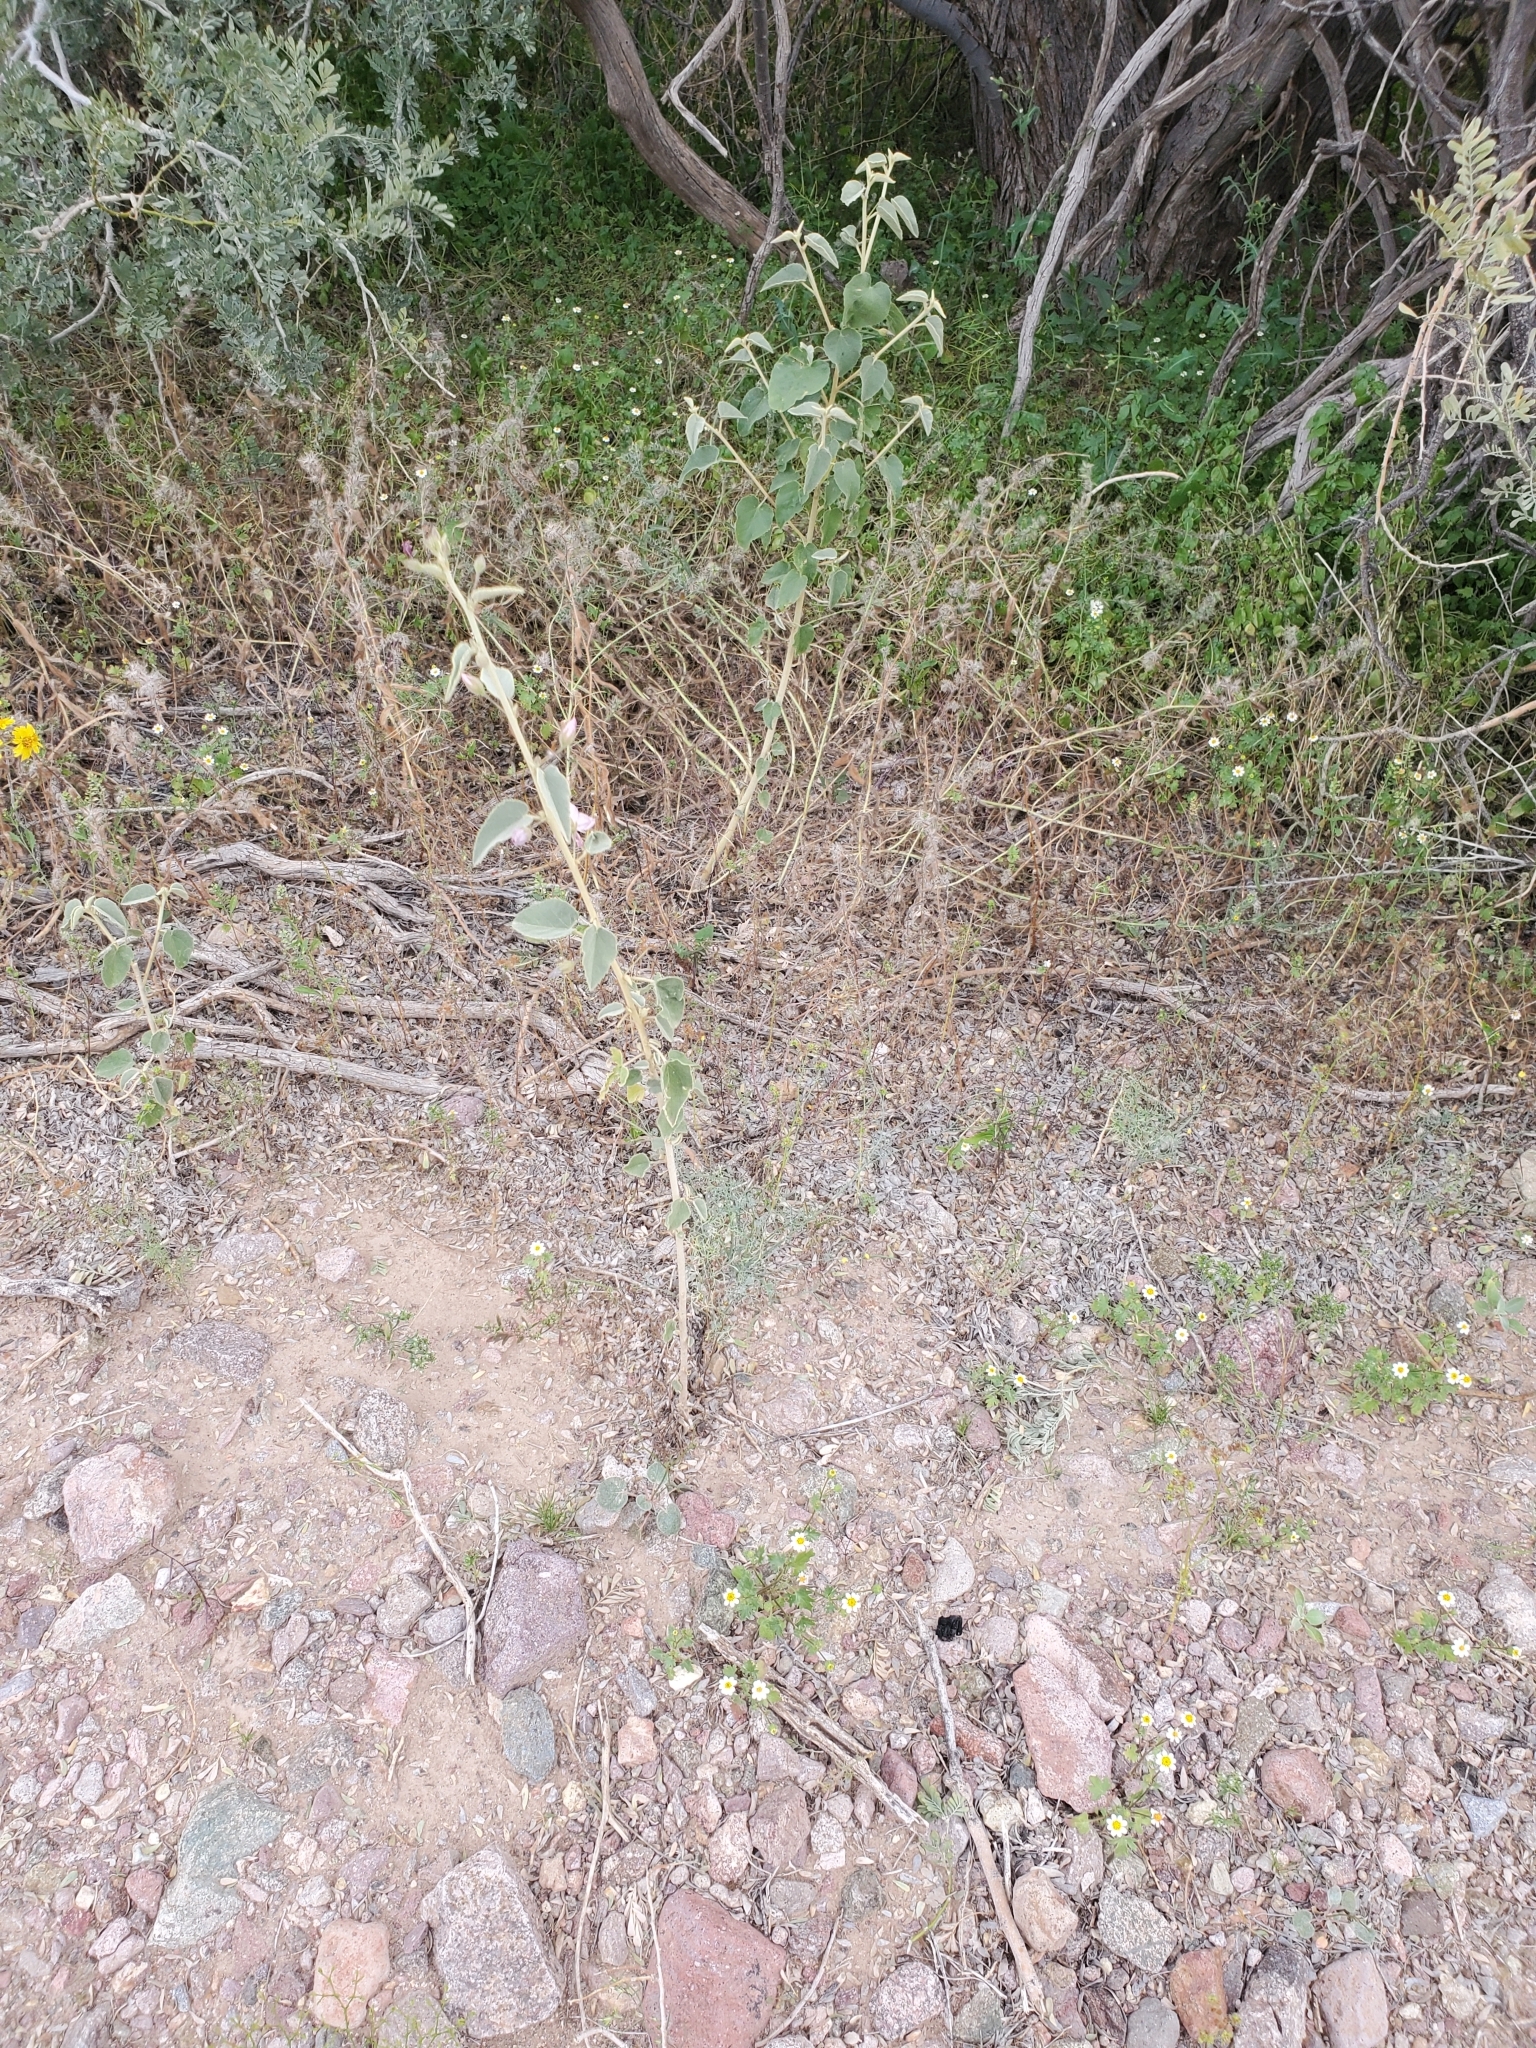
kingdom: Plantae
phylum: Tracheophyta
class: Magnoliopsida
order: Malvales
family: Malvaceae
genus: Horsfordia
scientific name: Horsfordia alata
